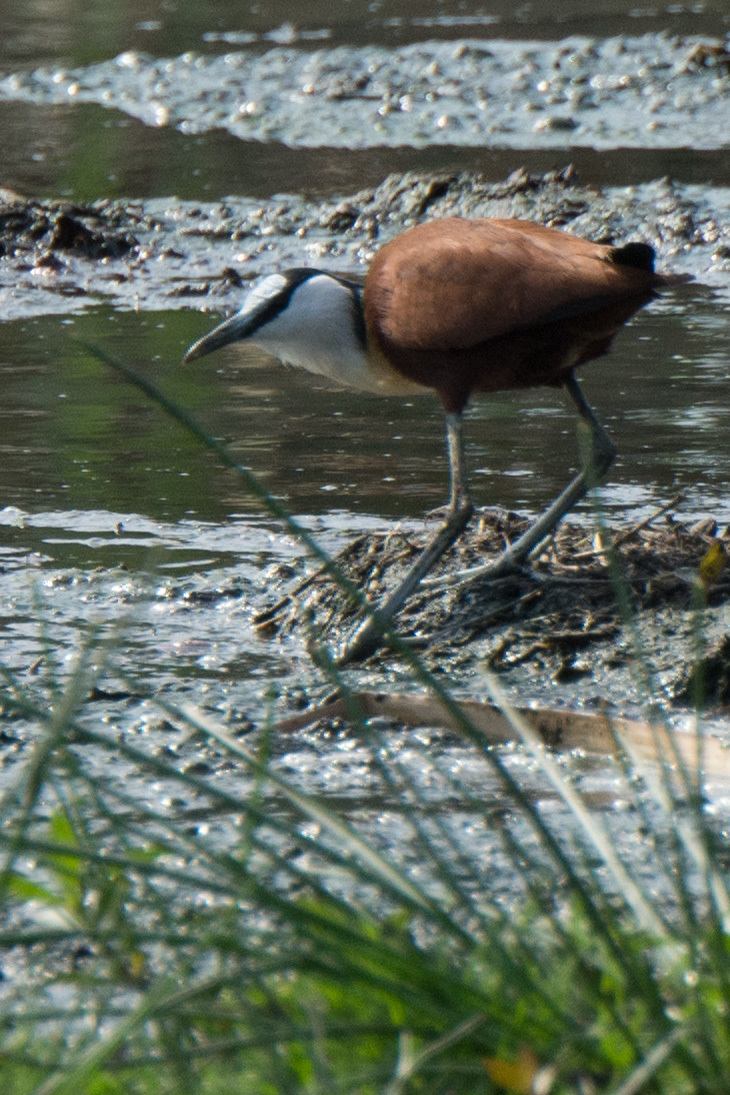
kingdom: Animalia
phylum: Chordata
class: Aves
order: Charadriiformes
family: Jacanidae
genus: Actophilornis
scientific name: Actophilornis africanus
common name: African jacana
